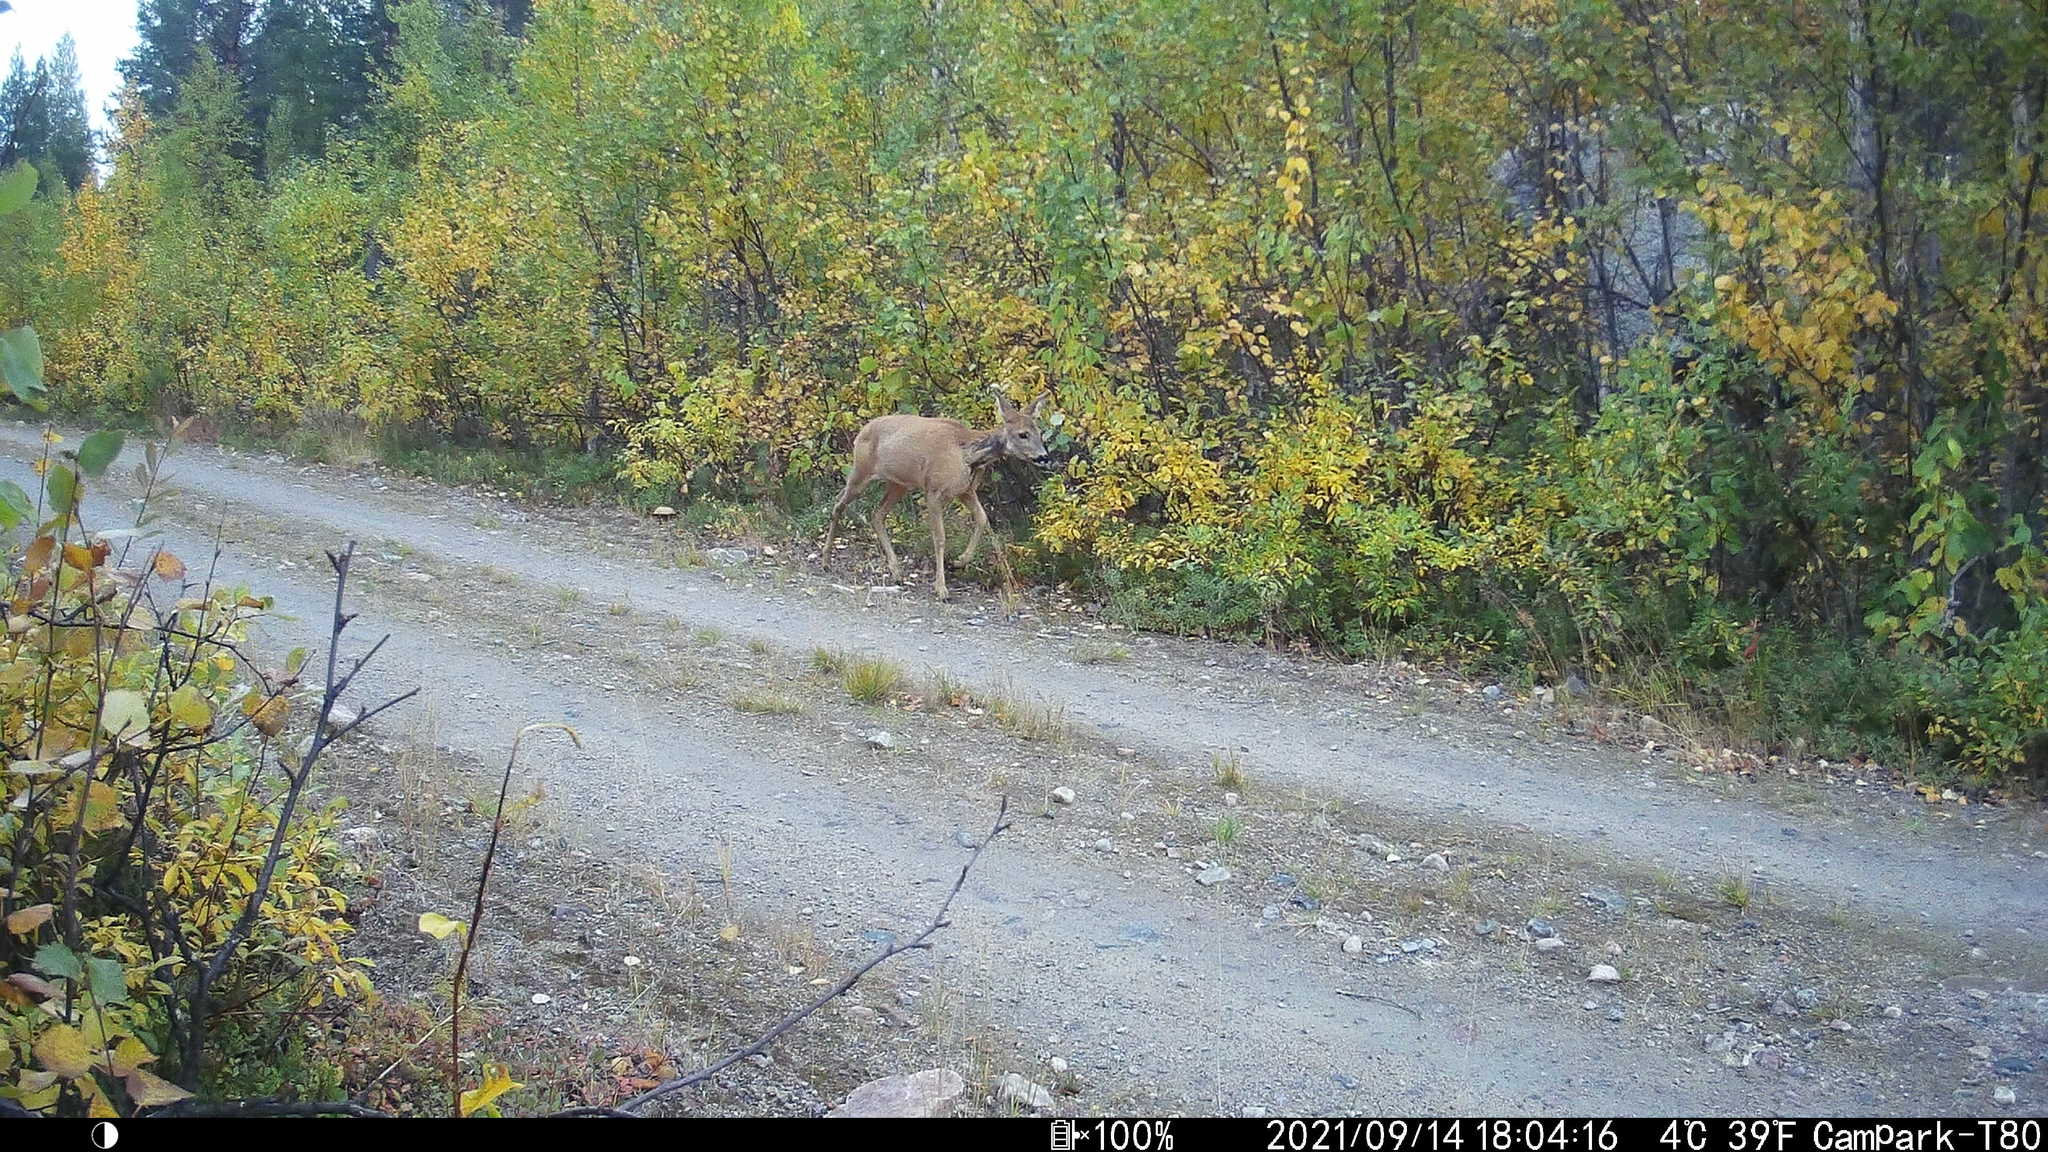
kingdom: Animalia
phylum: Chordata
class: Mammalia
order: Artiodactyla
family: Cervidae
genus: Capreolus
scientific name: Capreolus capreolus
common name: Western roe deer
